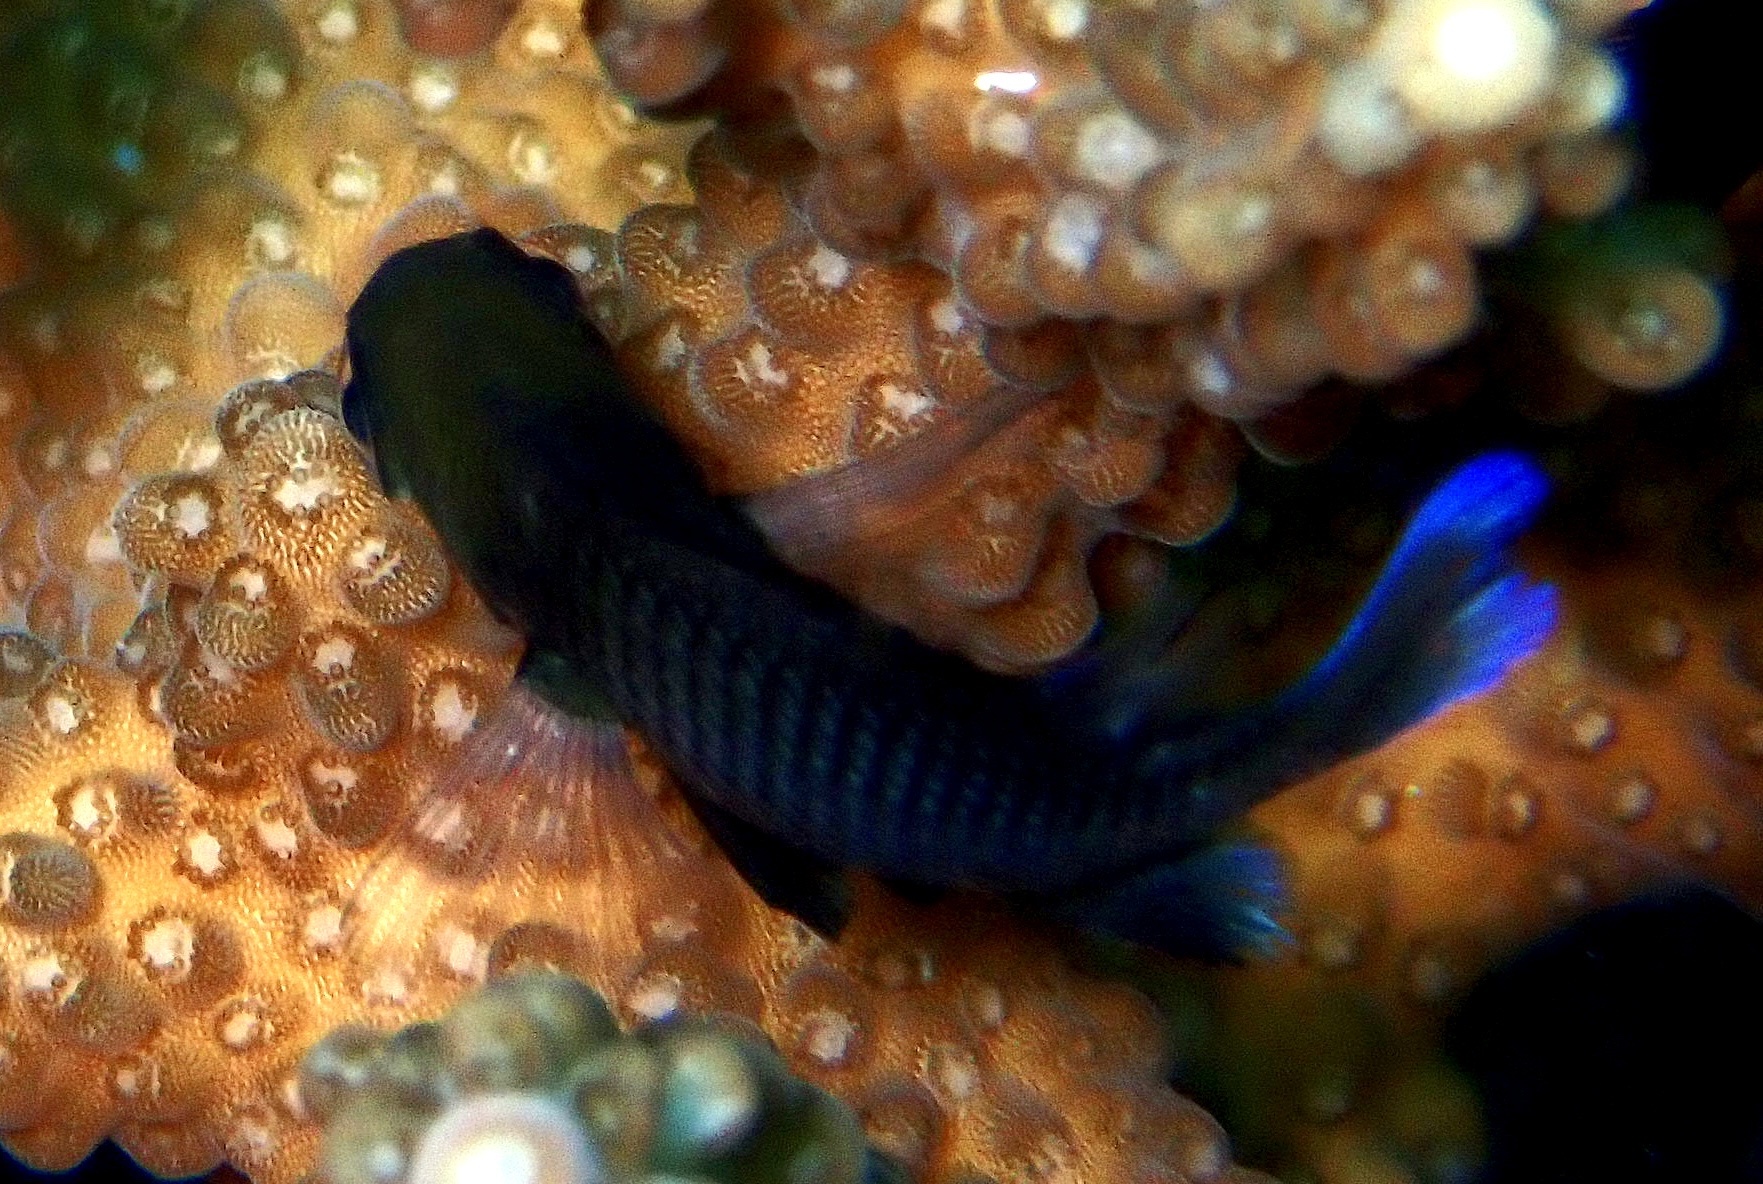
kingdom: Animalia
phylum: Chordata
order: Perciformes
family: Pomacentridae
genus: Dascyllus
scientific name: Dascyllus reticulatus
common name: Reticulated dascyllus
